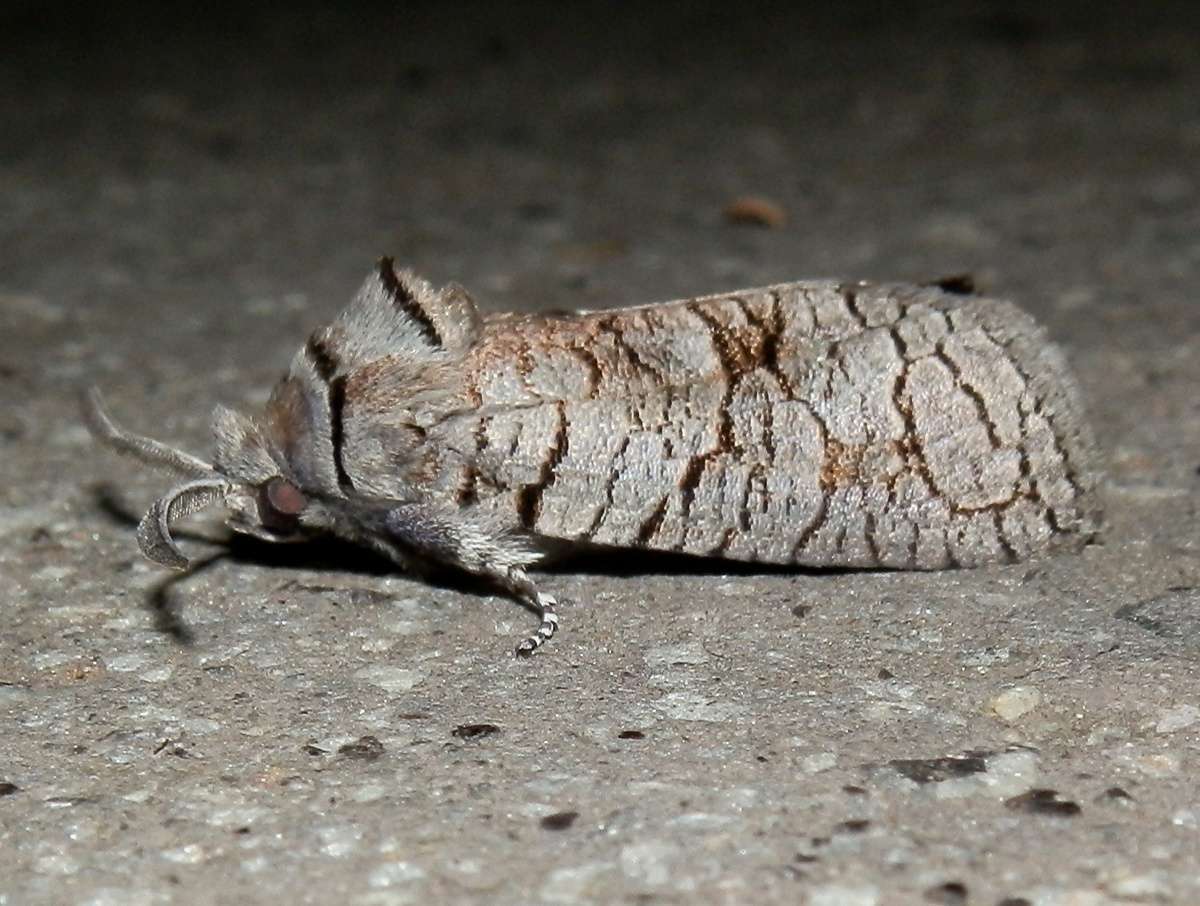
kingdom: Animalia
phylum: Arthropoda
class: Insecta
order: Lepidoptera
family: Cossidae
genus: Culama
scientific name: Culama suffusca
